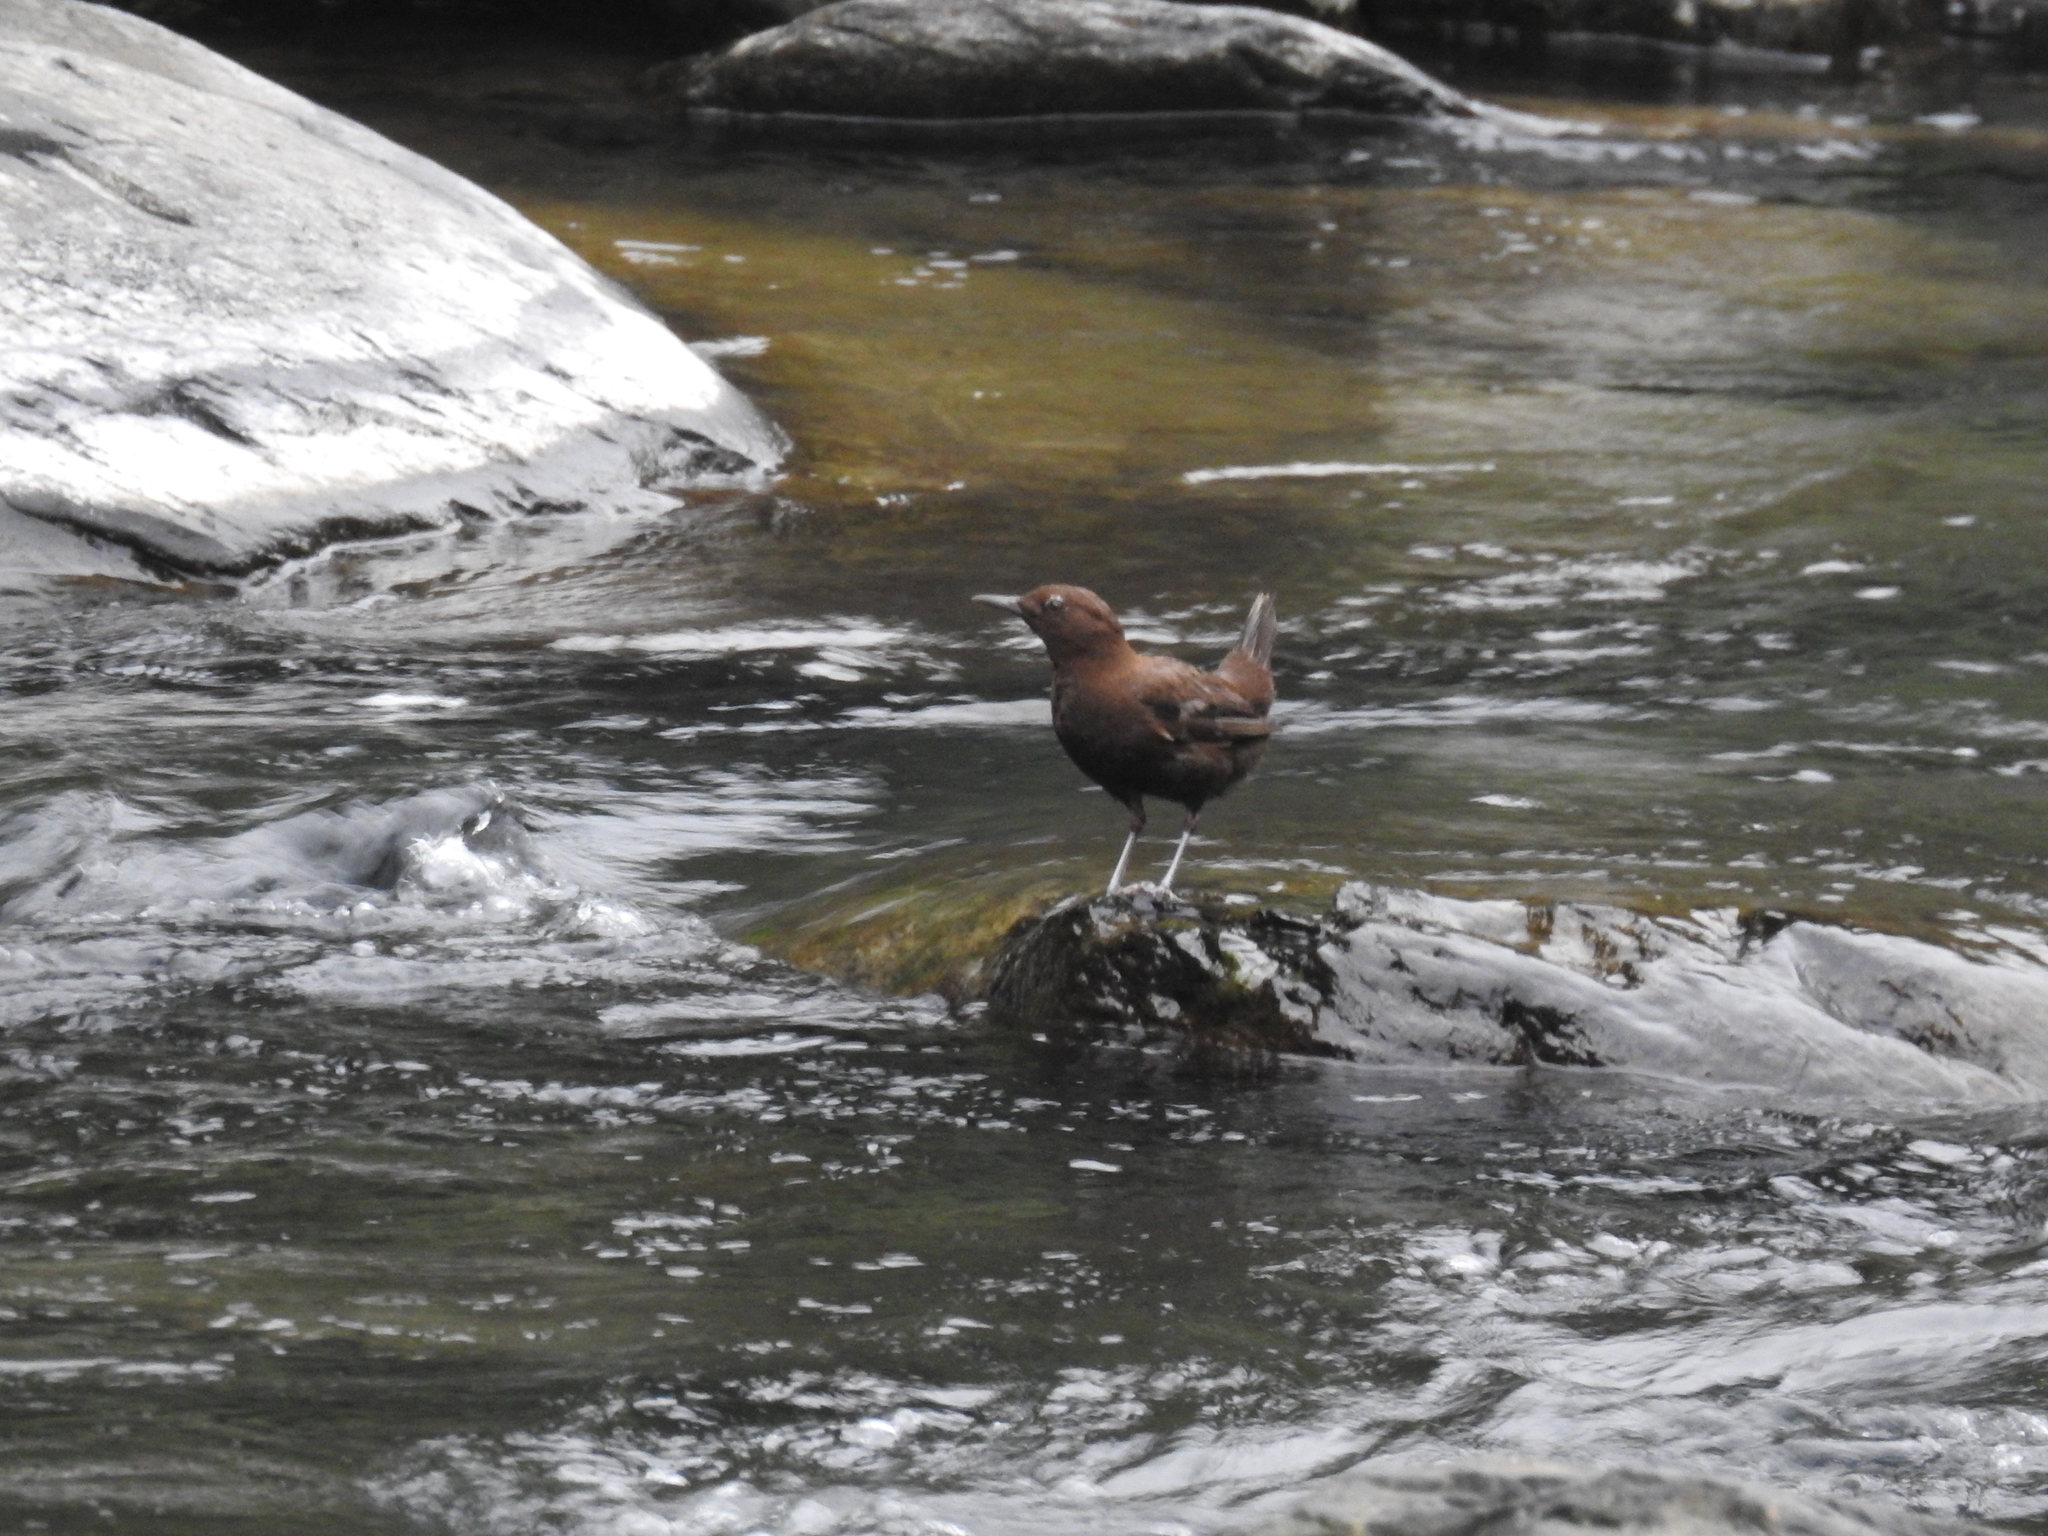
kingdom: Animalia
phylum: Chordata
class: Aves
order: Passeriformes
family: Cinclidae
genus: Cinclus
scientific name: Cinclus pallasii
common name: Brown dipper
